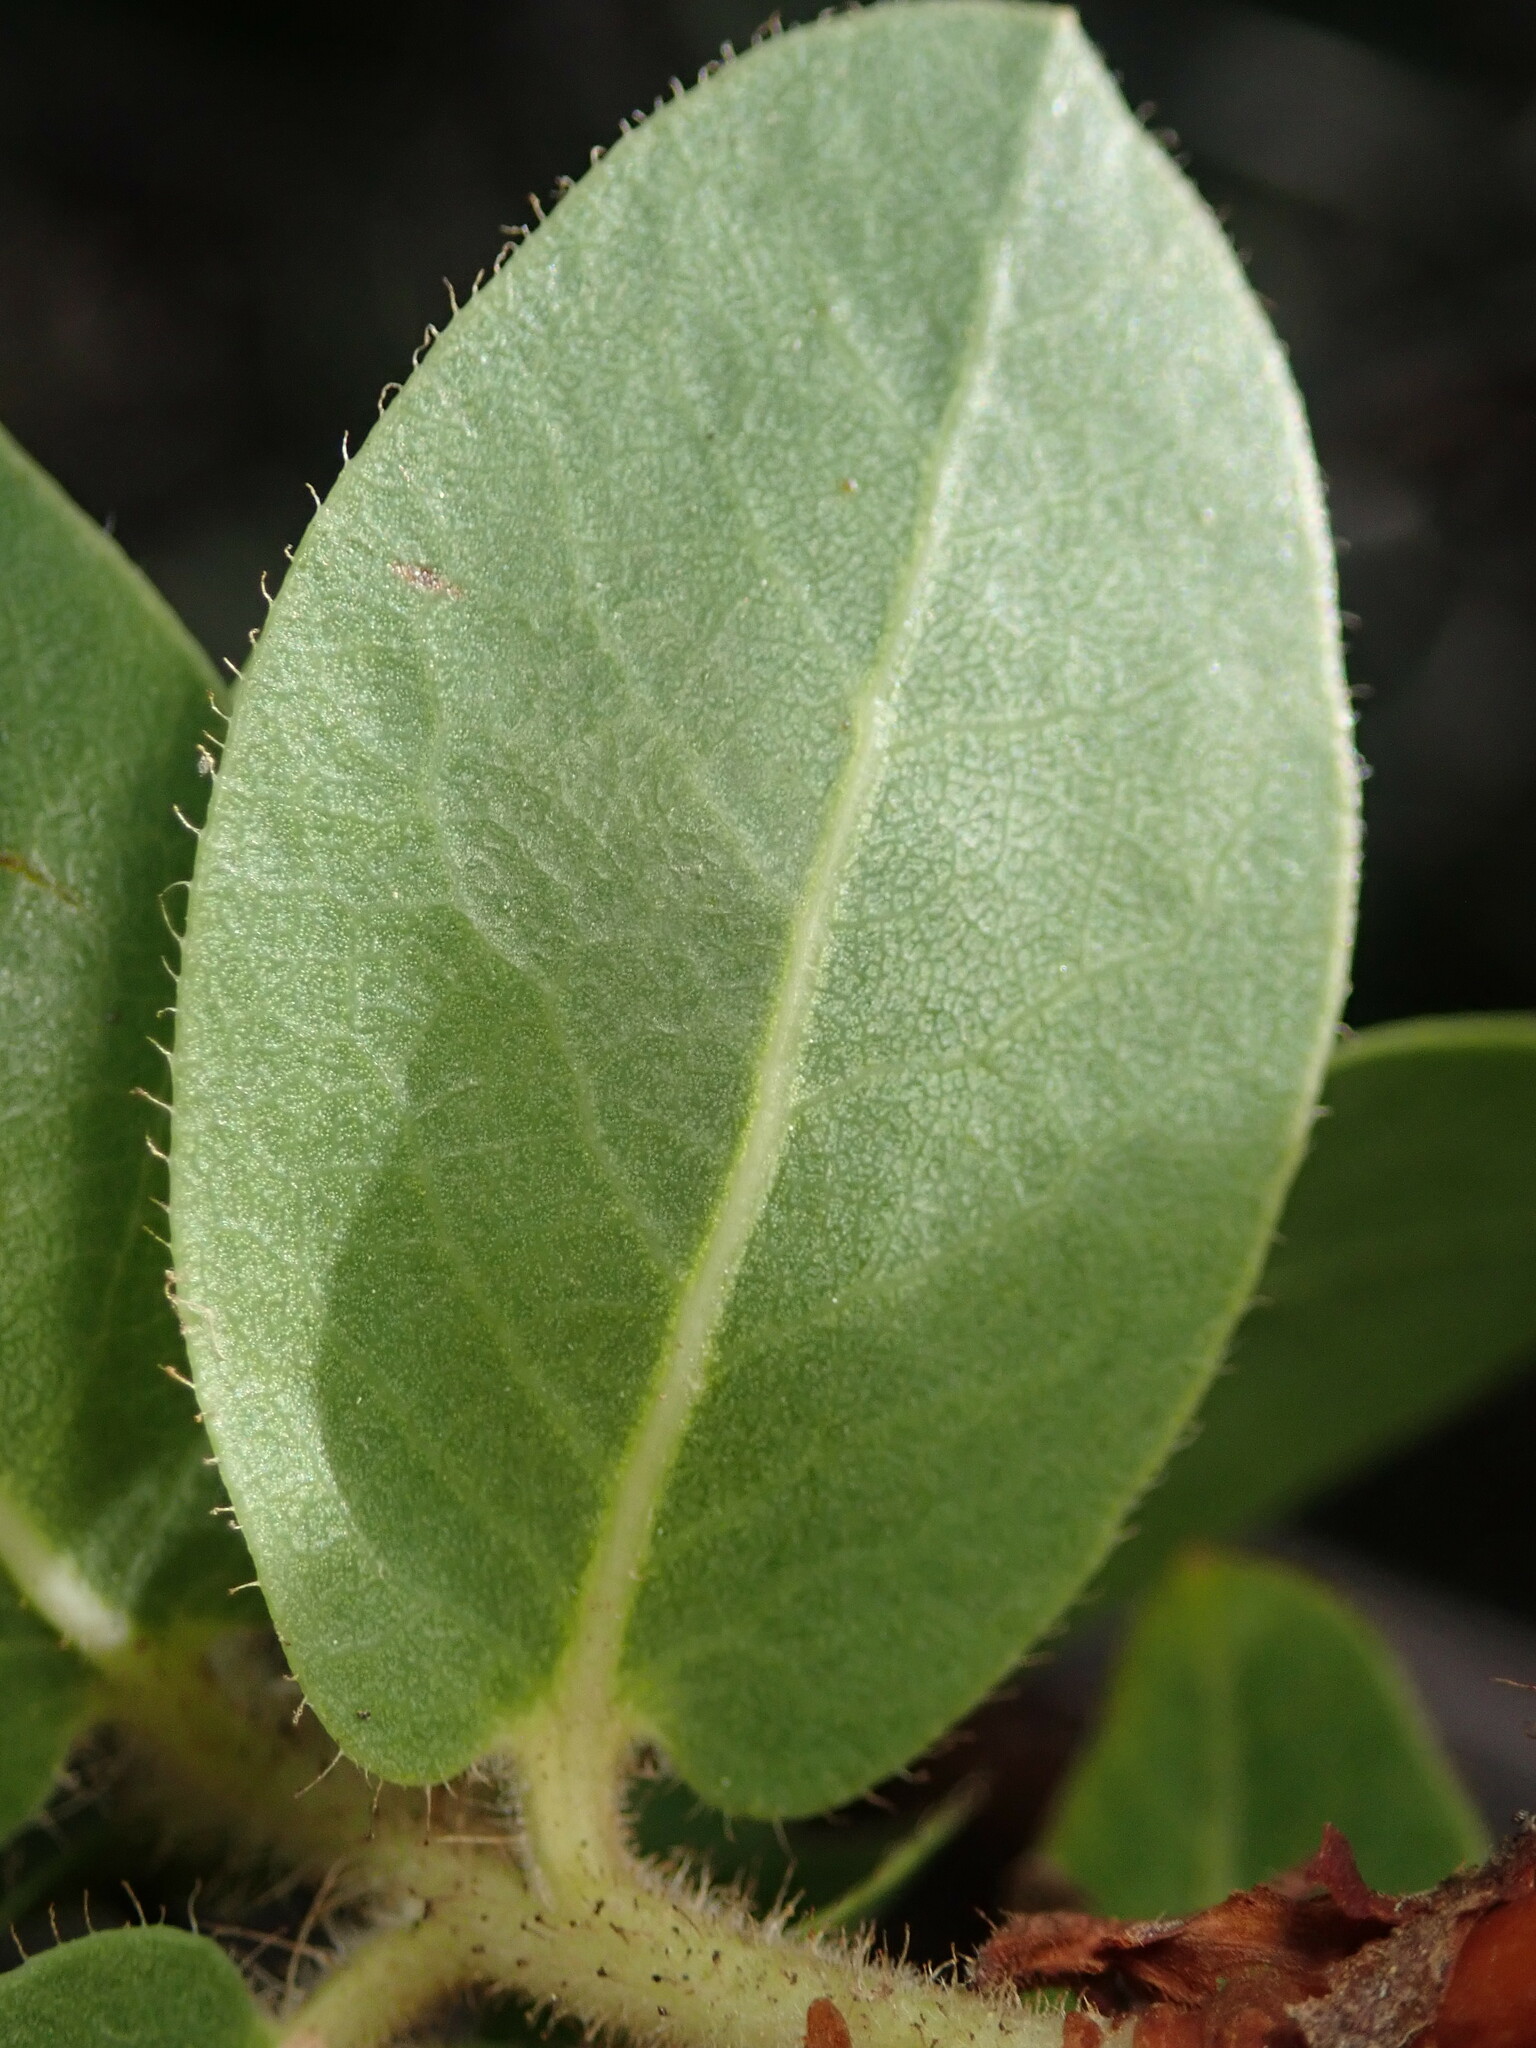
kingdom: Plantae
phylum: Tracheophyta
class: Magnoliopsida
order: Ericales
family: Ericaceae
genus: Arctostaphylos
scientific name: Arctostaphylos montaraensis
